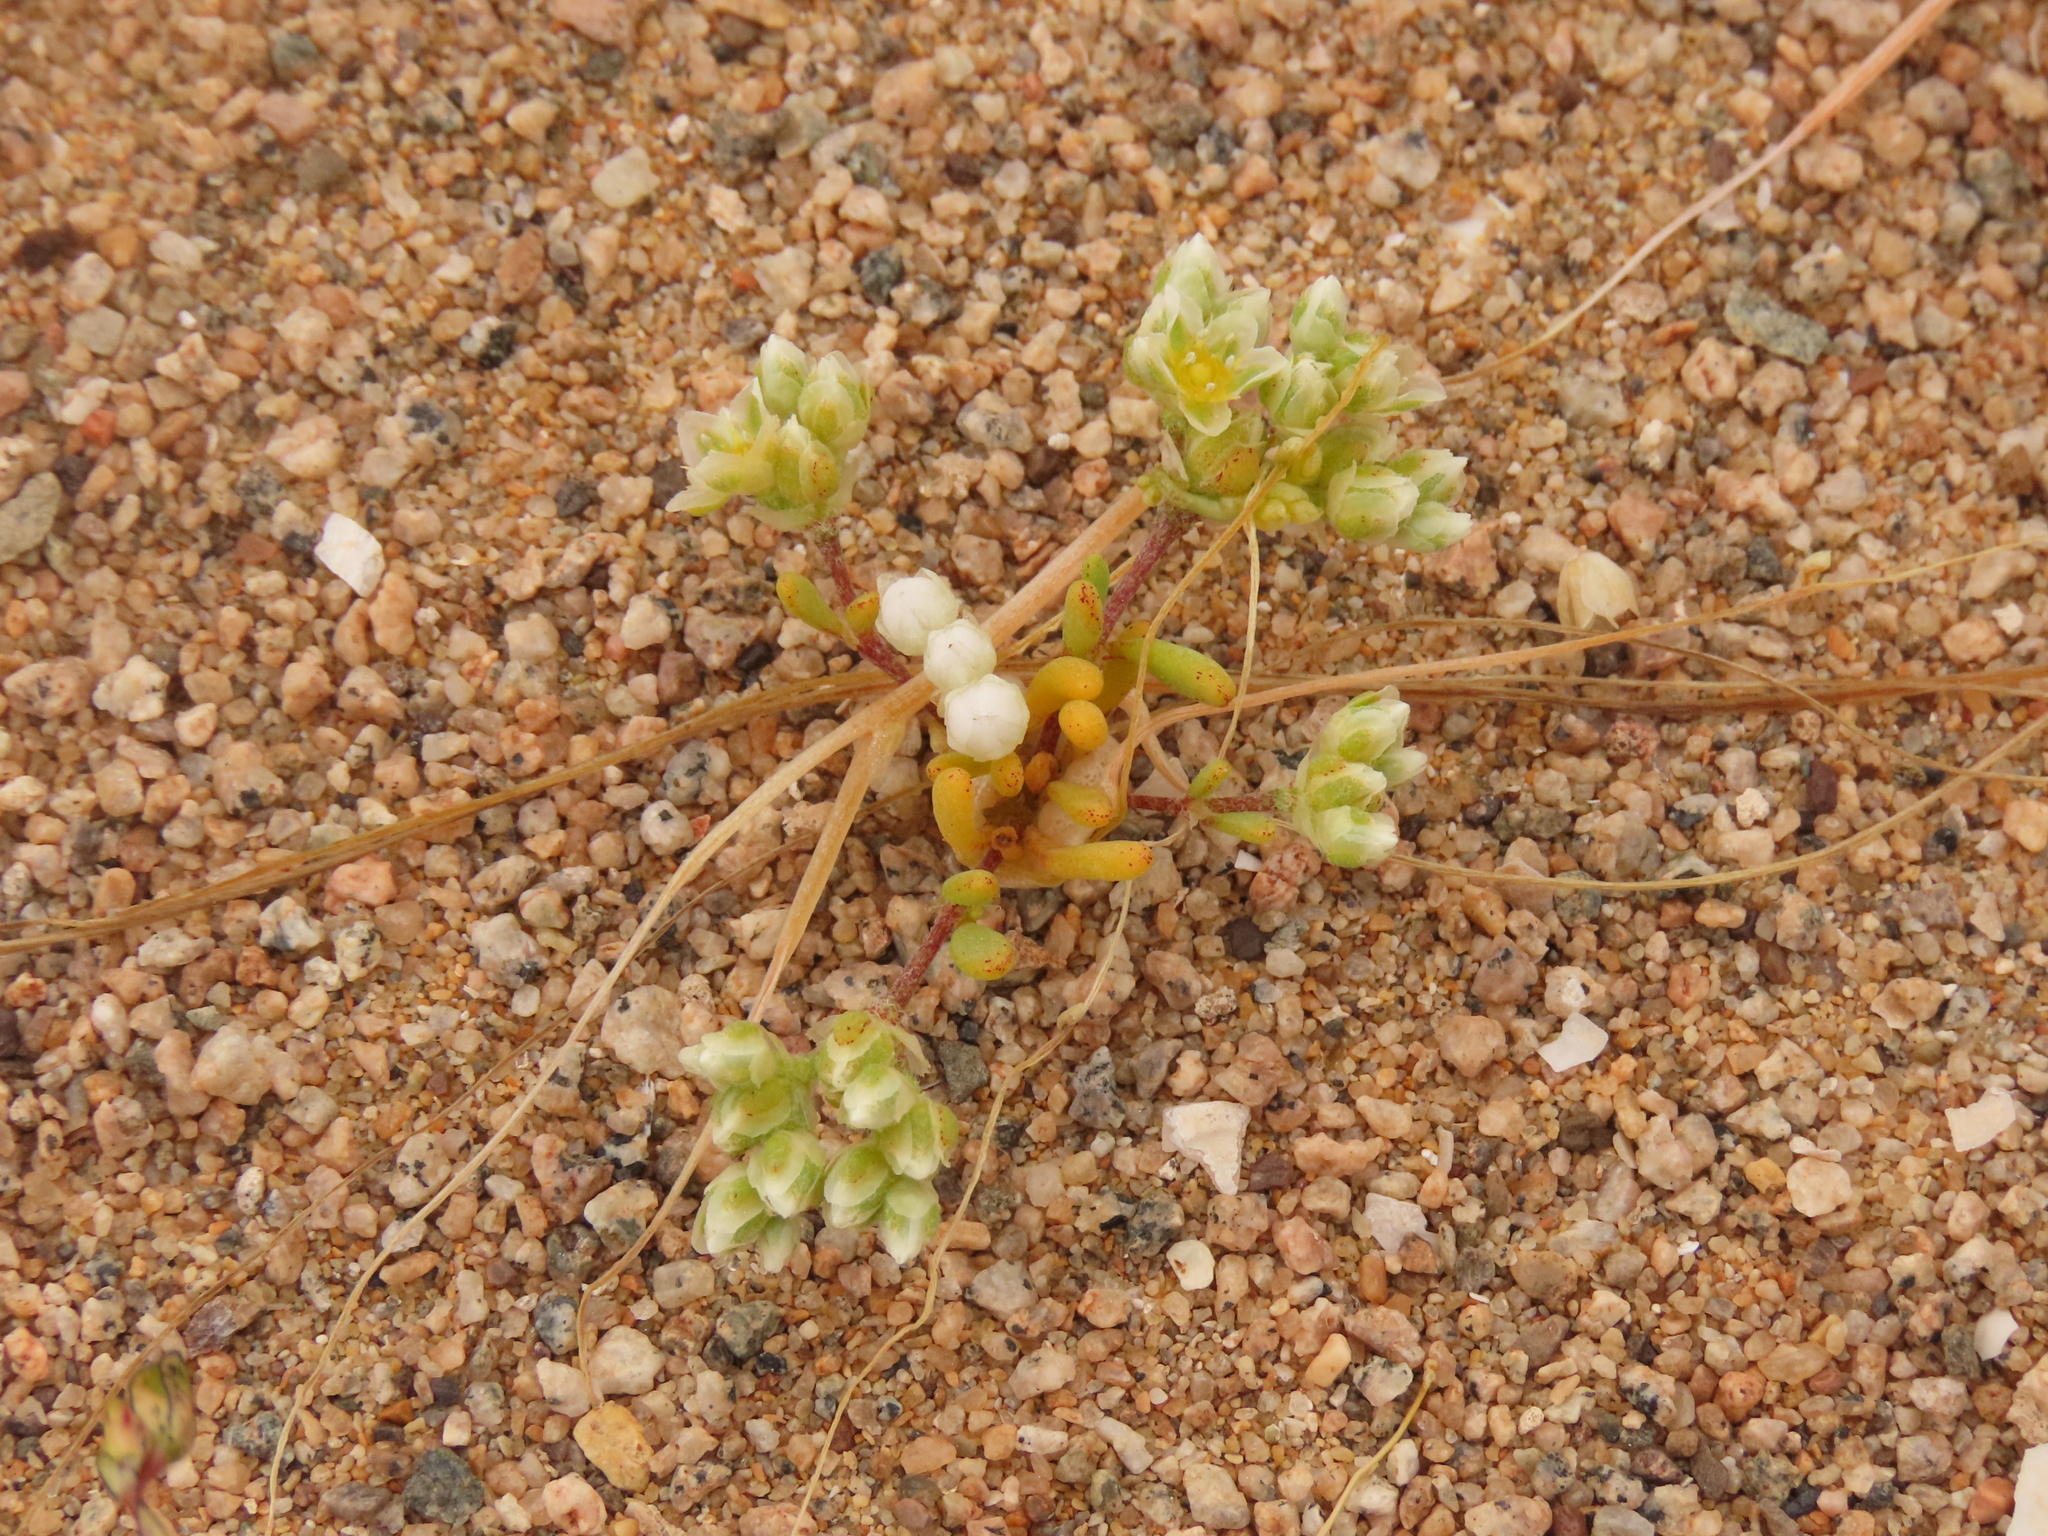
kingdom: Plantae
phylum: Tracheophyta
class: Magnoliopsida
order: Caryophyllales
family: Caryophyllaceae
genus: Microphyes
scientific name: Microphyes litoralis
